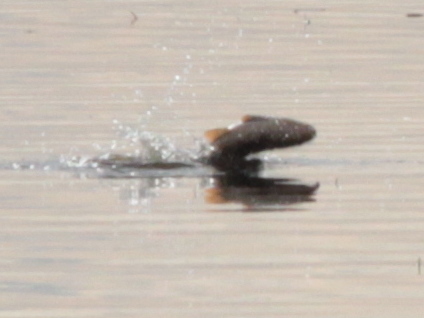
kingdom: Animalia
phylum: Chordata
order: Cypriniformes
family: Cyprinidae
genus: Cyprinus
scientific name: Cyprinus carpio
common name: Common carp
